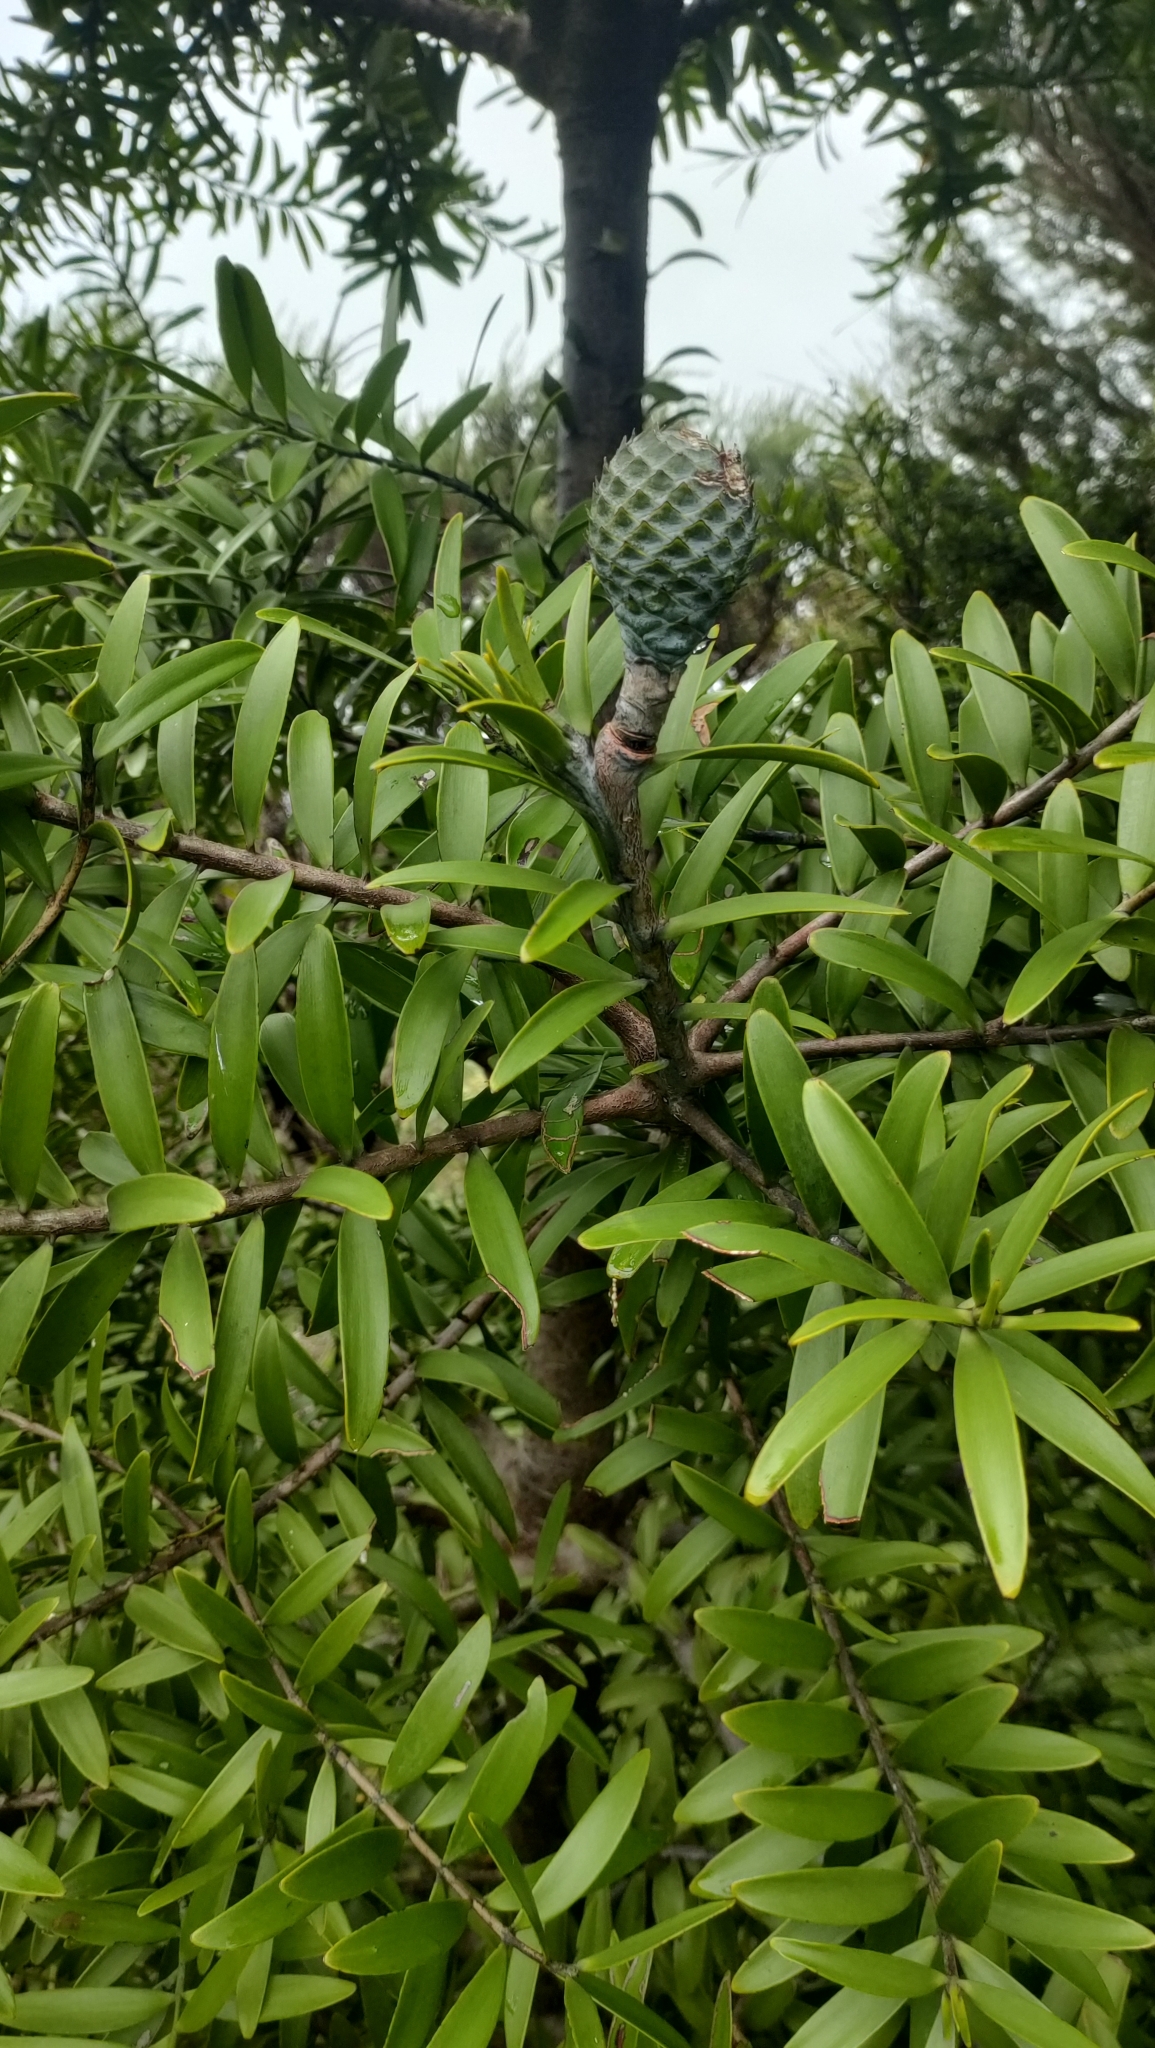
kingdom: Plantae
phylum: Tracheophyta
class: Pinopsida
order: Pinales
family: Araucariaceae
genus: Agathis
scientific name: Agathis australis
